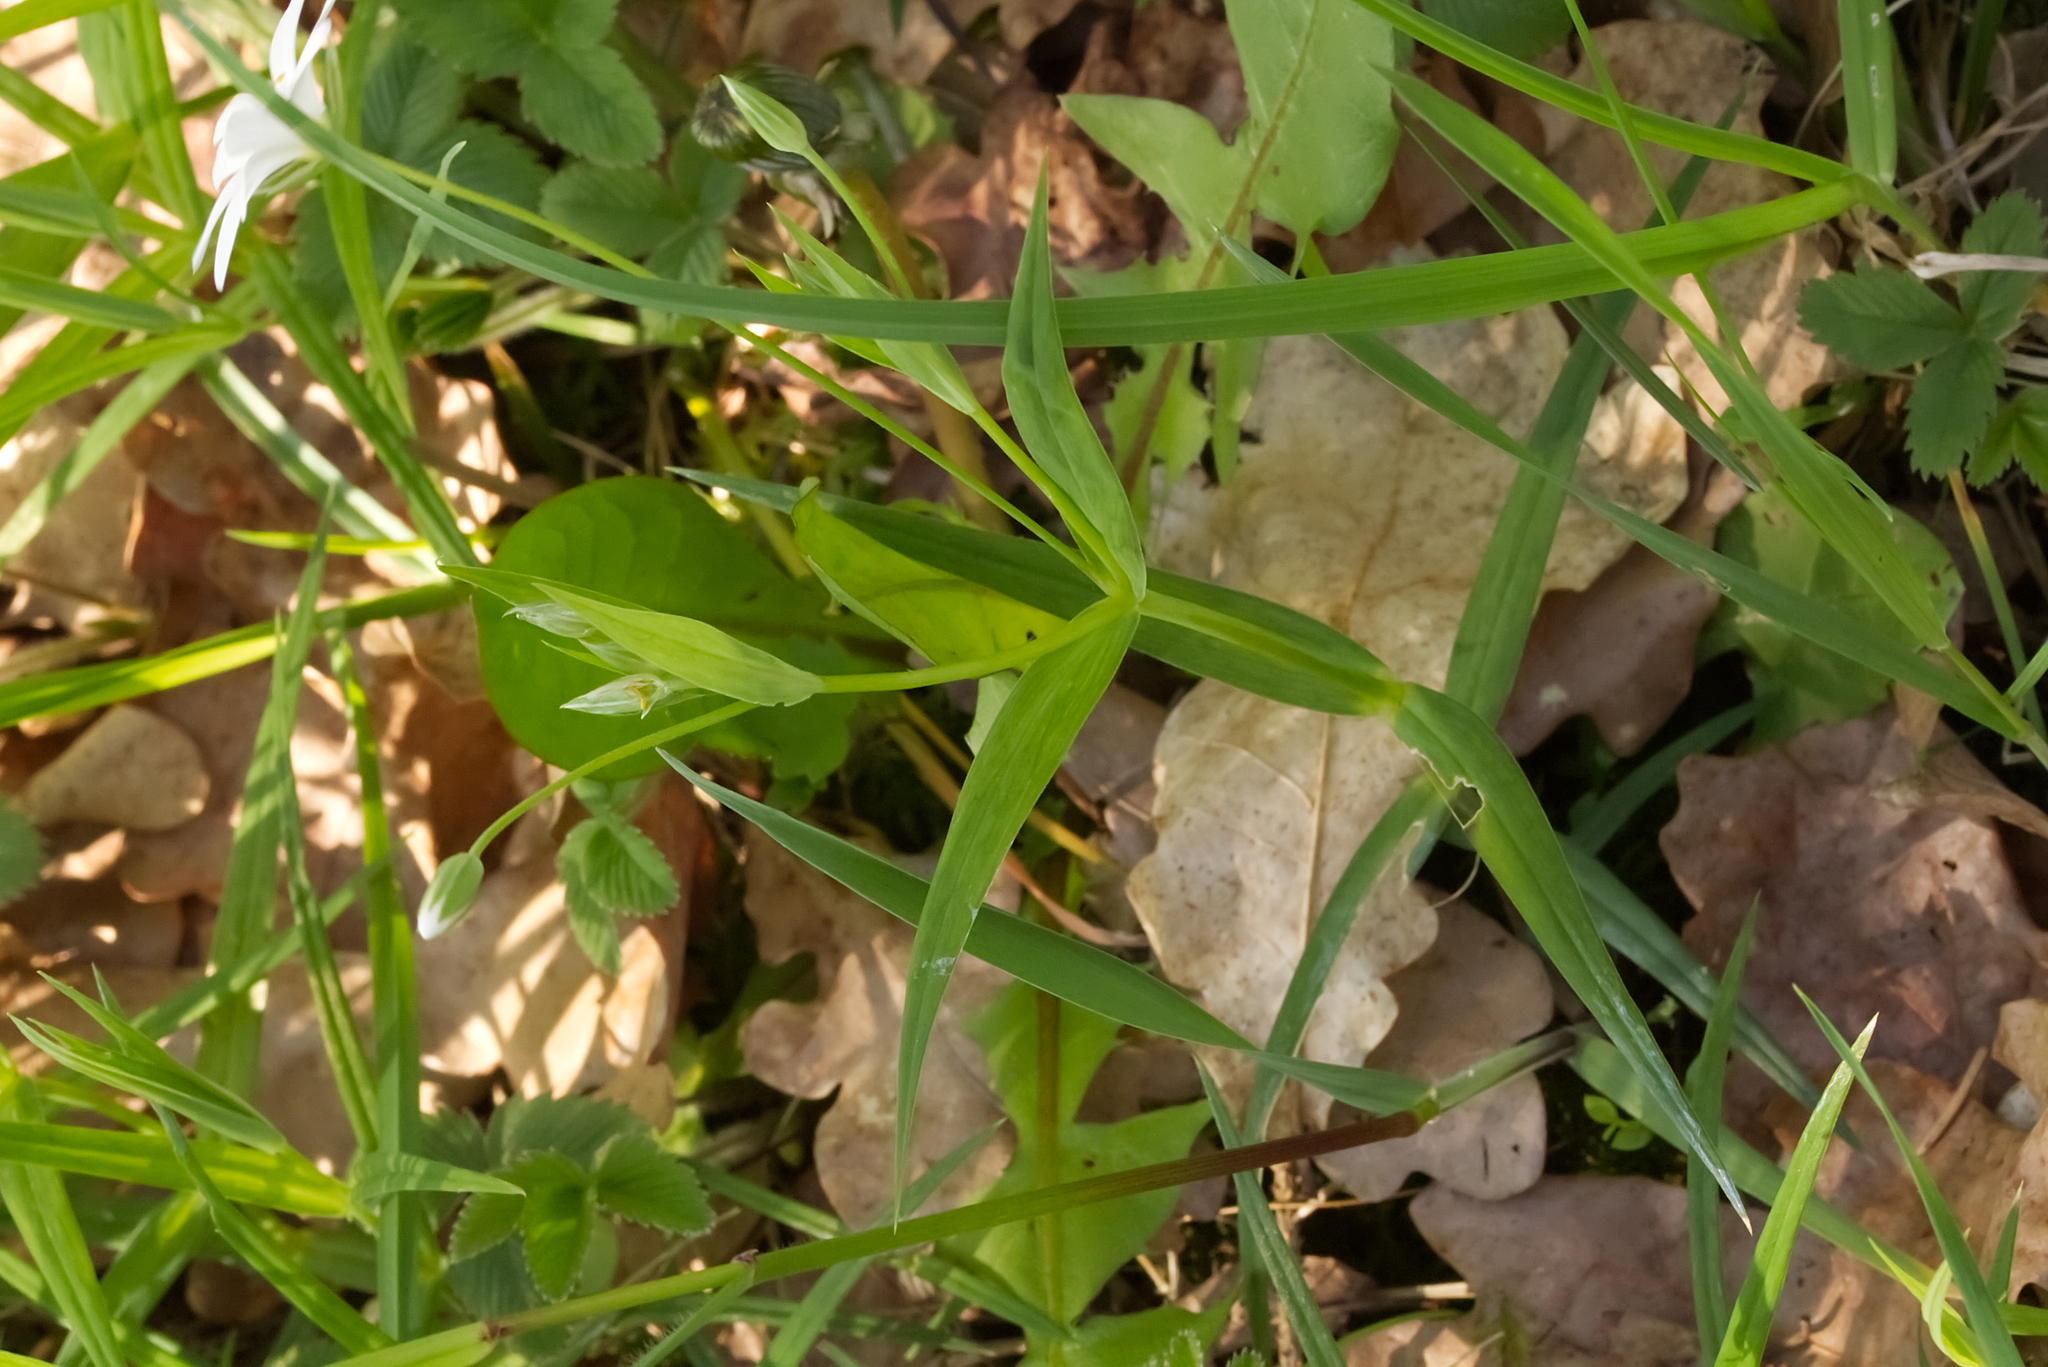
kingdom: Plantae
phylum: Tracheophyta
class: Magnoliopsida
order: Caryophyllales
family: Caryophyllaceae
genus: Rabelera
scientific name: Rabelera holostea
